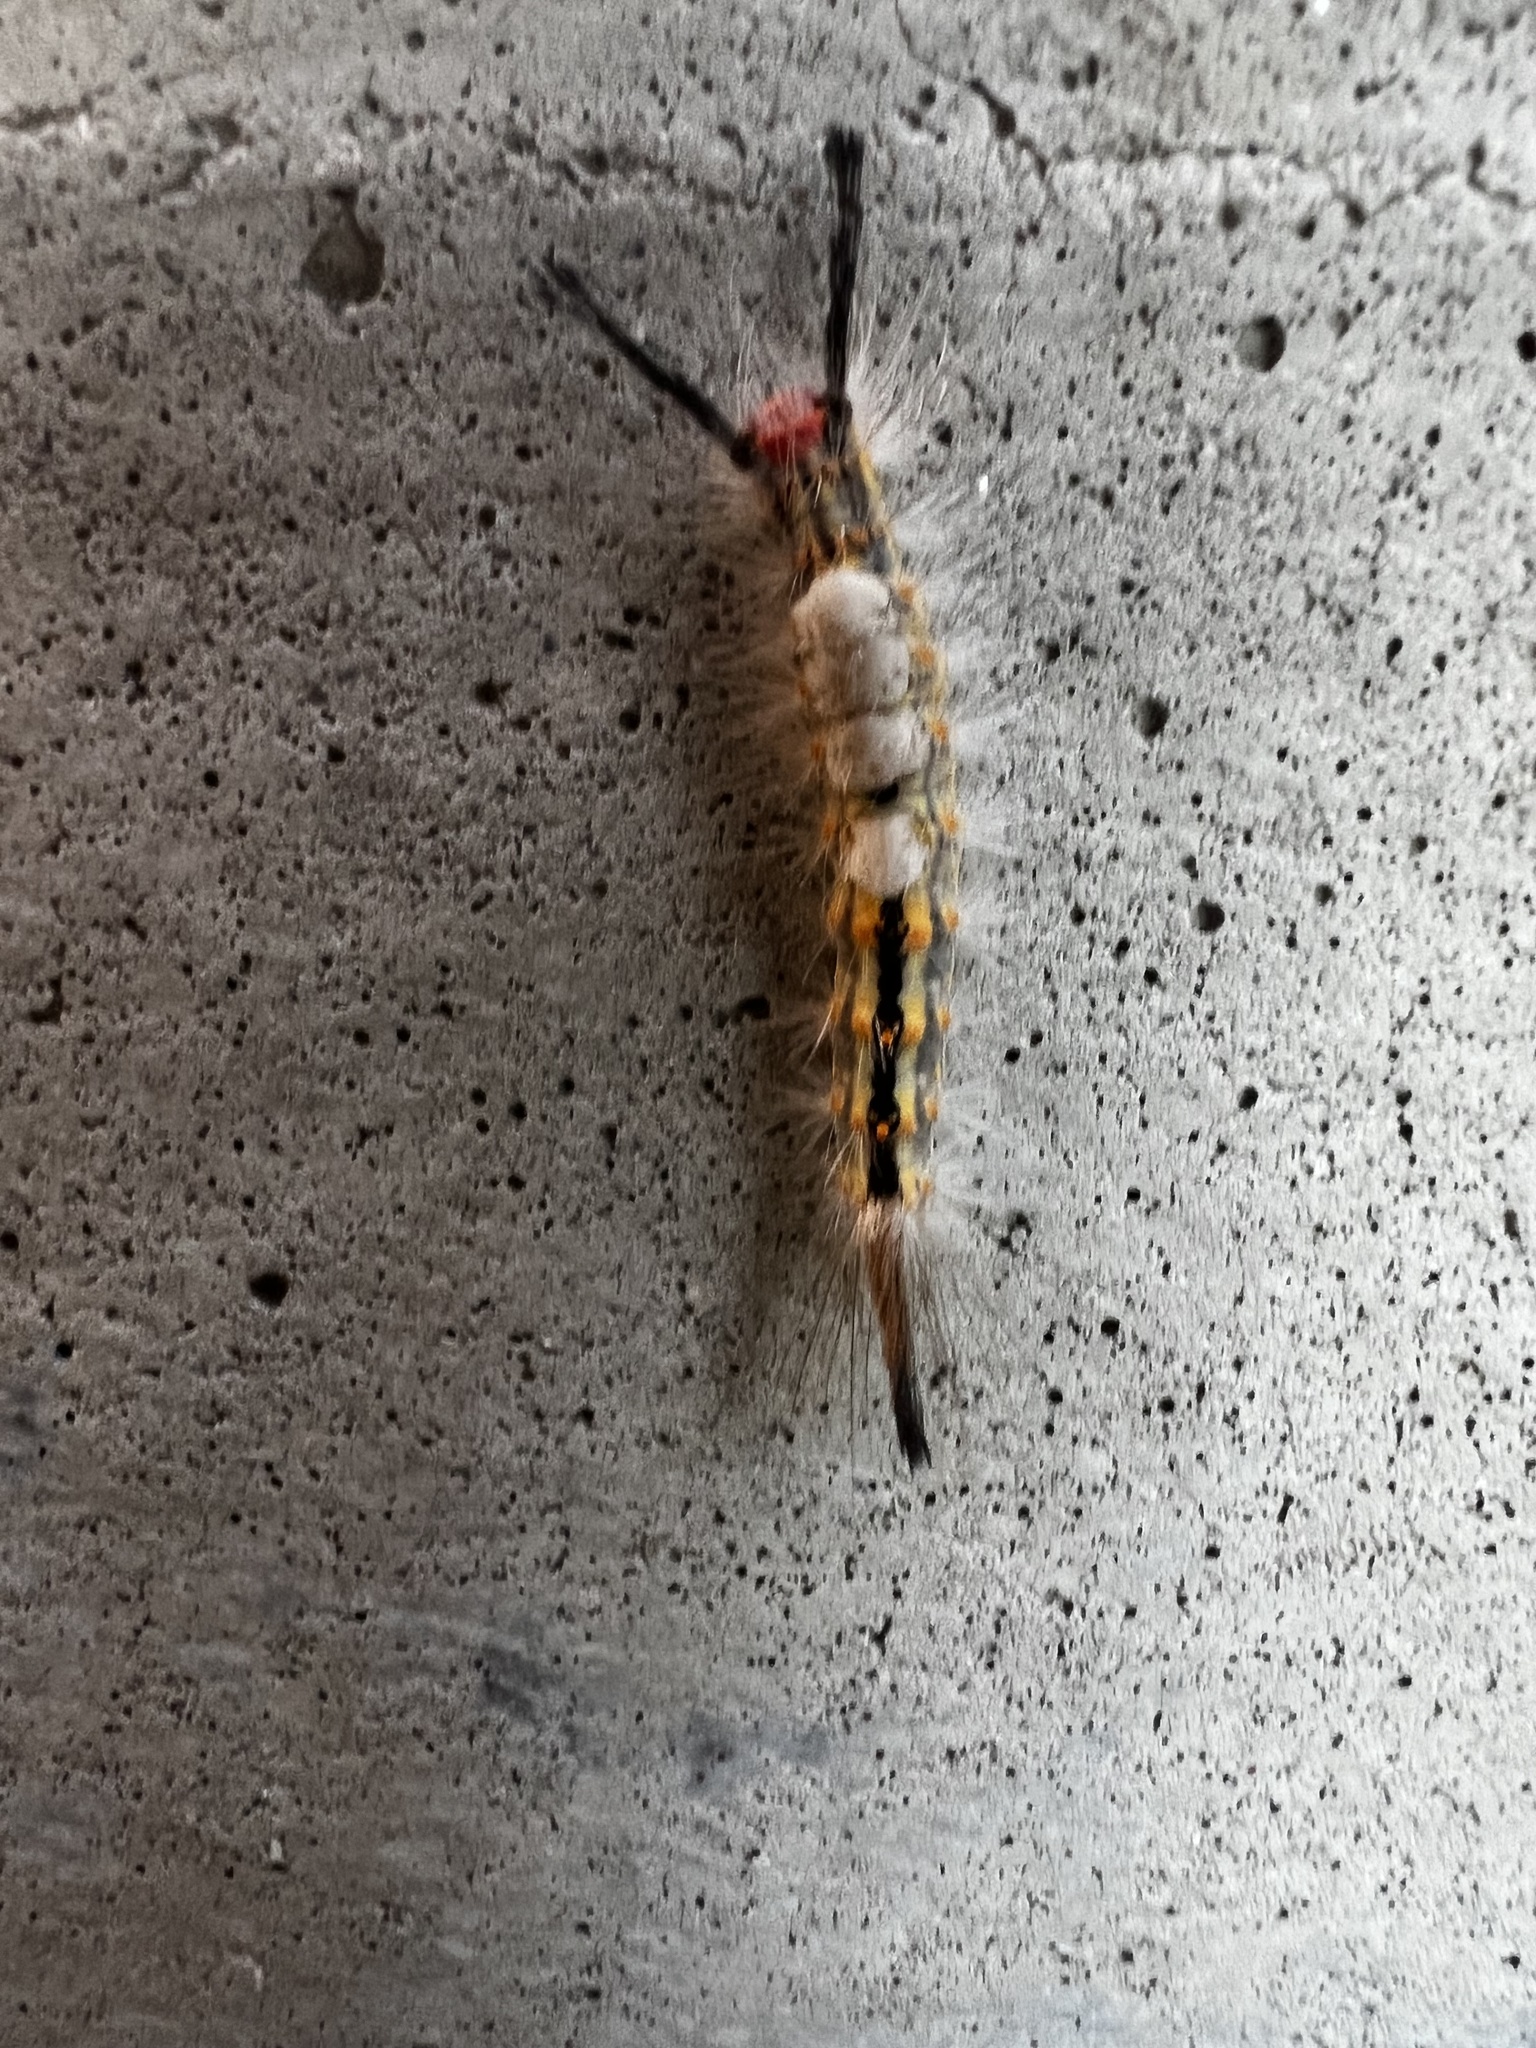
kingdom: Animalia
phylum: Arthropoda
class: Insecta
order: Lepidoptera
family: Erebidae
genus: Orgyia
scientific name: Orgyia detrita
